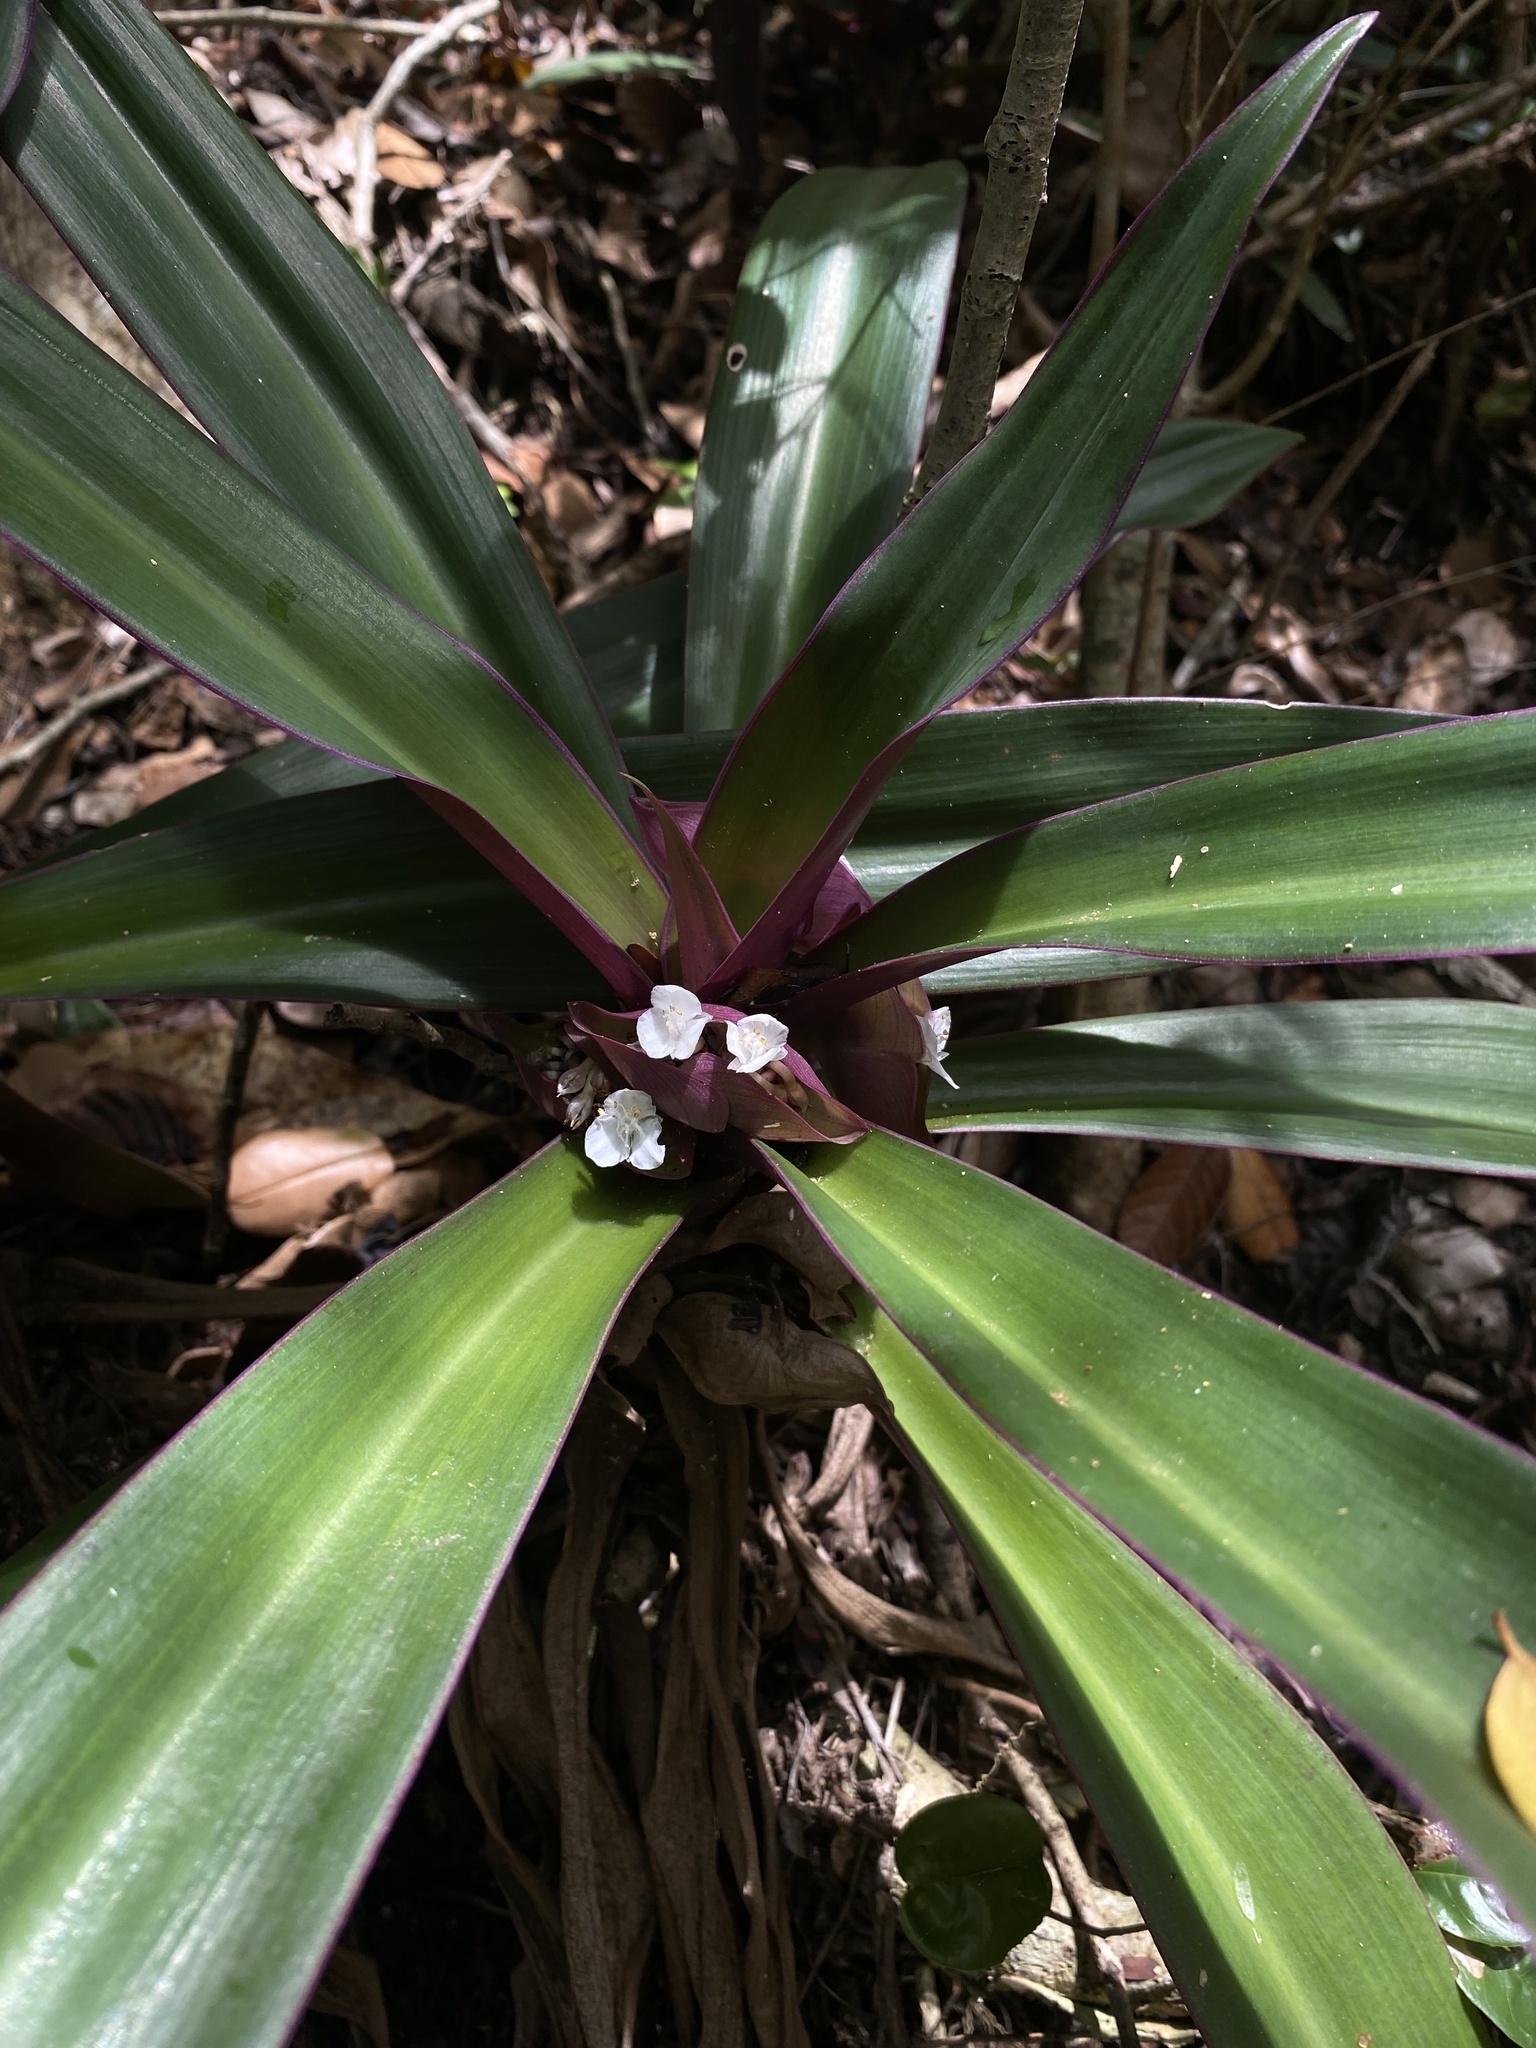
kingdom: Plantae
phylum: Tracheophyta
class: Liliopsida
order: Commelinales
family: Commelinaceae
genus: Tradescantia
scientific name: Tradescantia spathacea
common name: Boatlily
